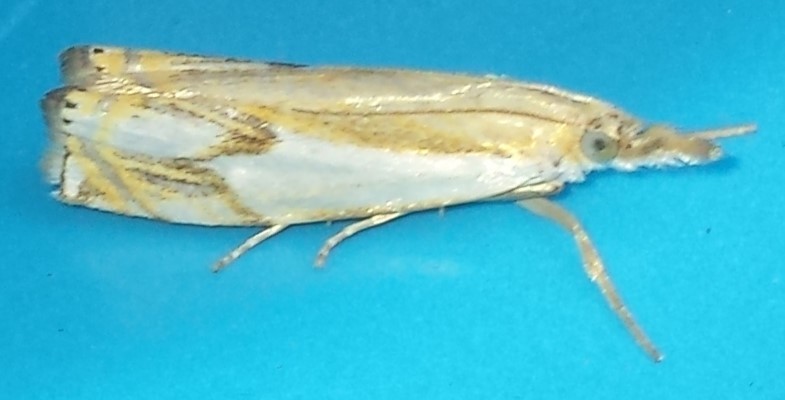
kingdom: Animalia
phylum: Arthropoda
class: Insecta
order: Lepidoptera
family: Crambidae
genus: Crambus
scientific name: Crambus agitatellus
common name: Double-banded grass-veneer
